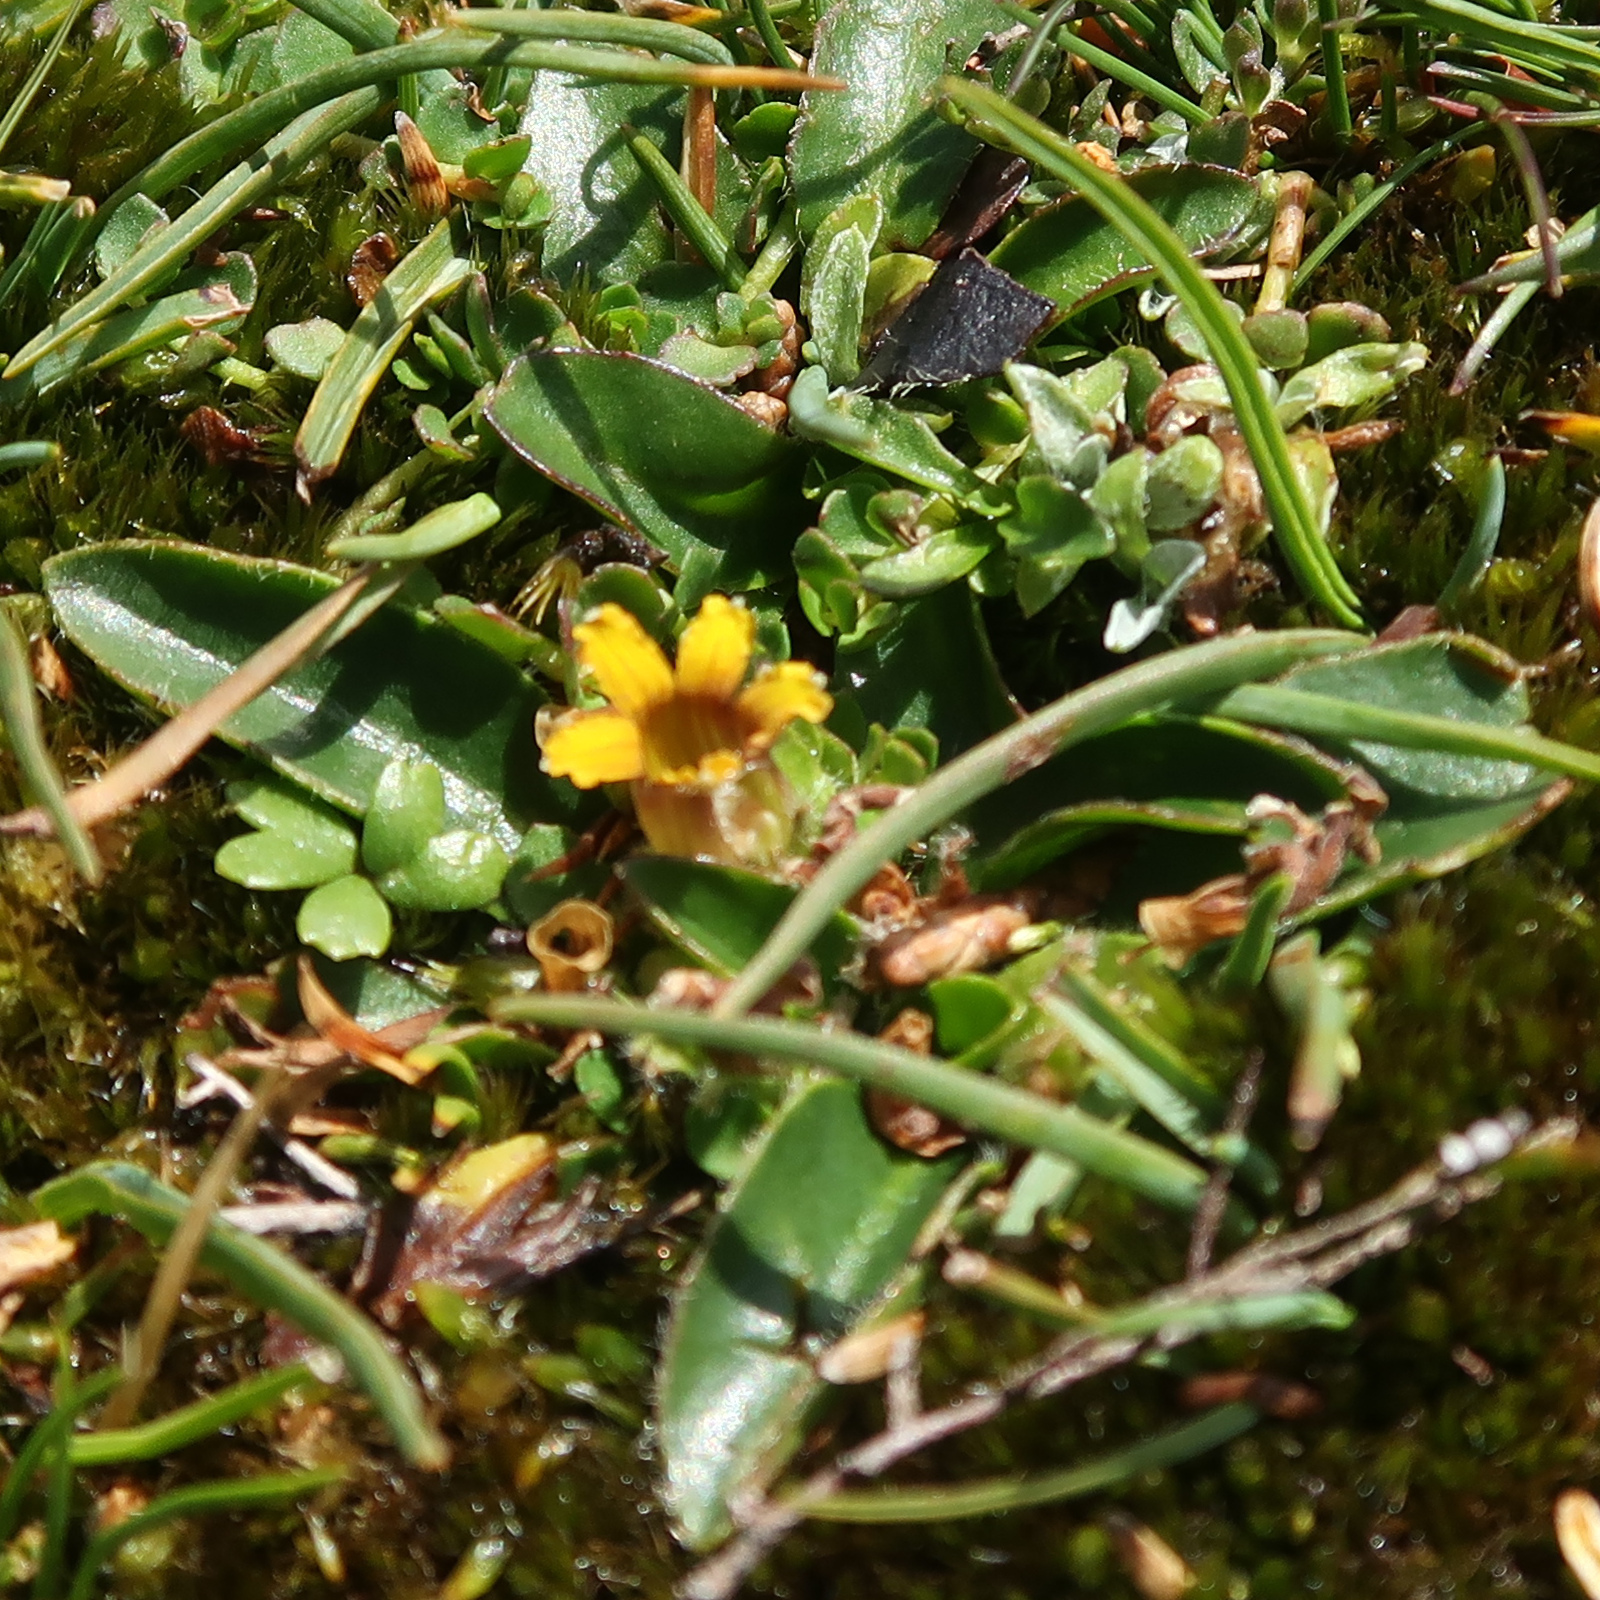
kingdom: Plantae
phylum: Tracheophyta
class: Magnoliopsida
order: Asterales
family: Goodeniaceae
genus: Goodenia
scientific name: Goodenia montana
